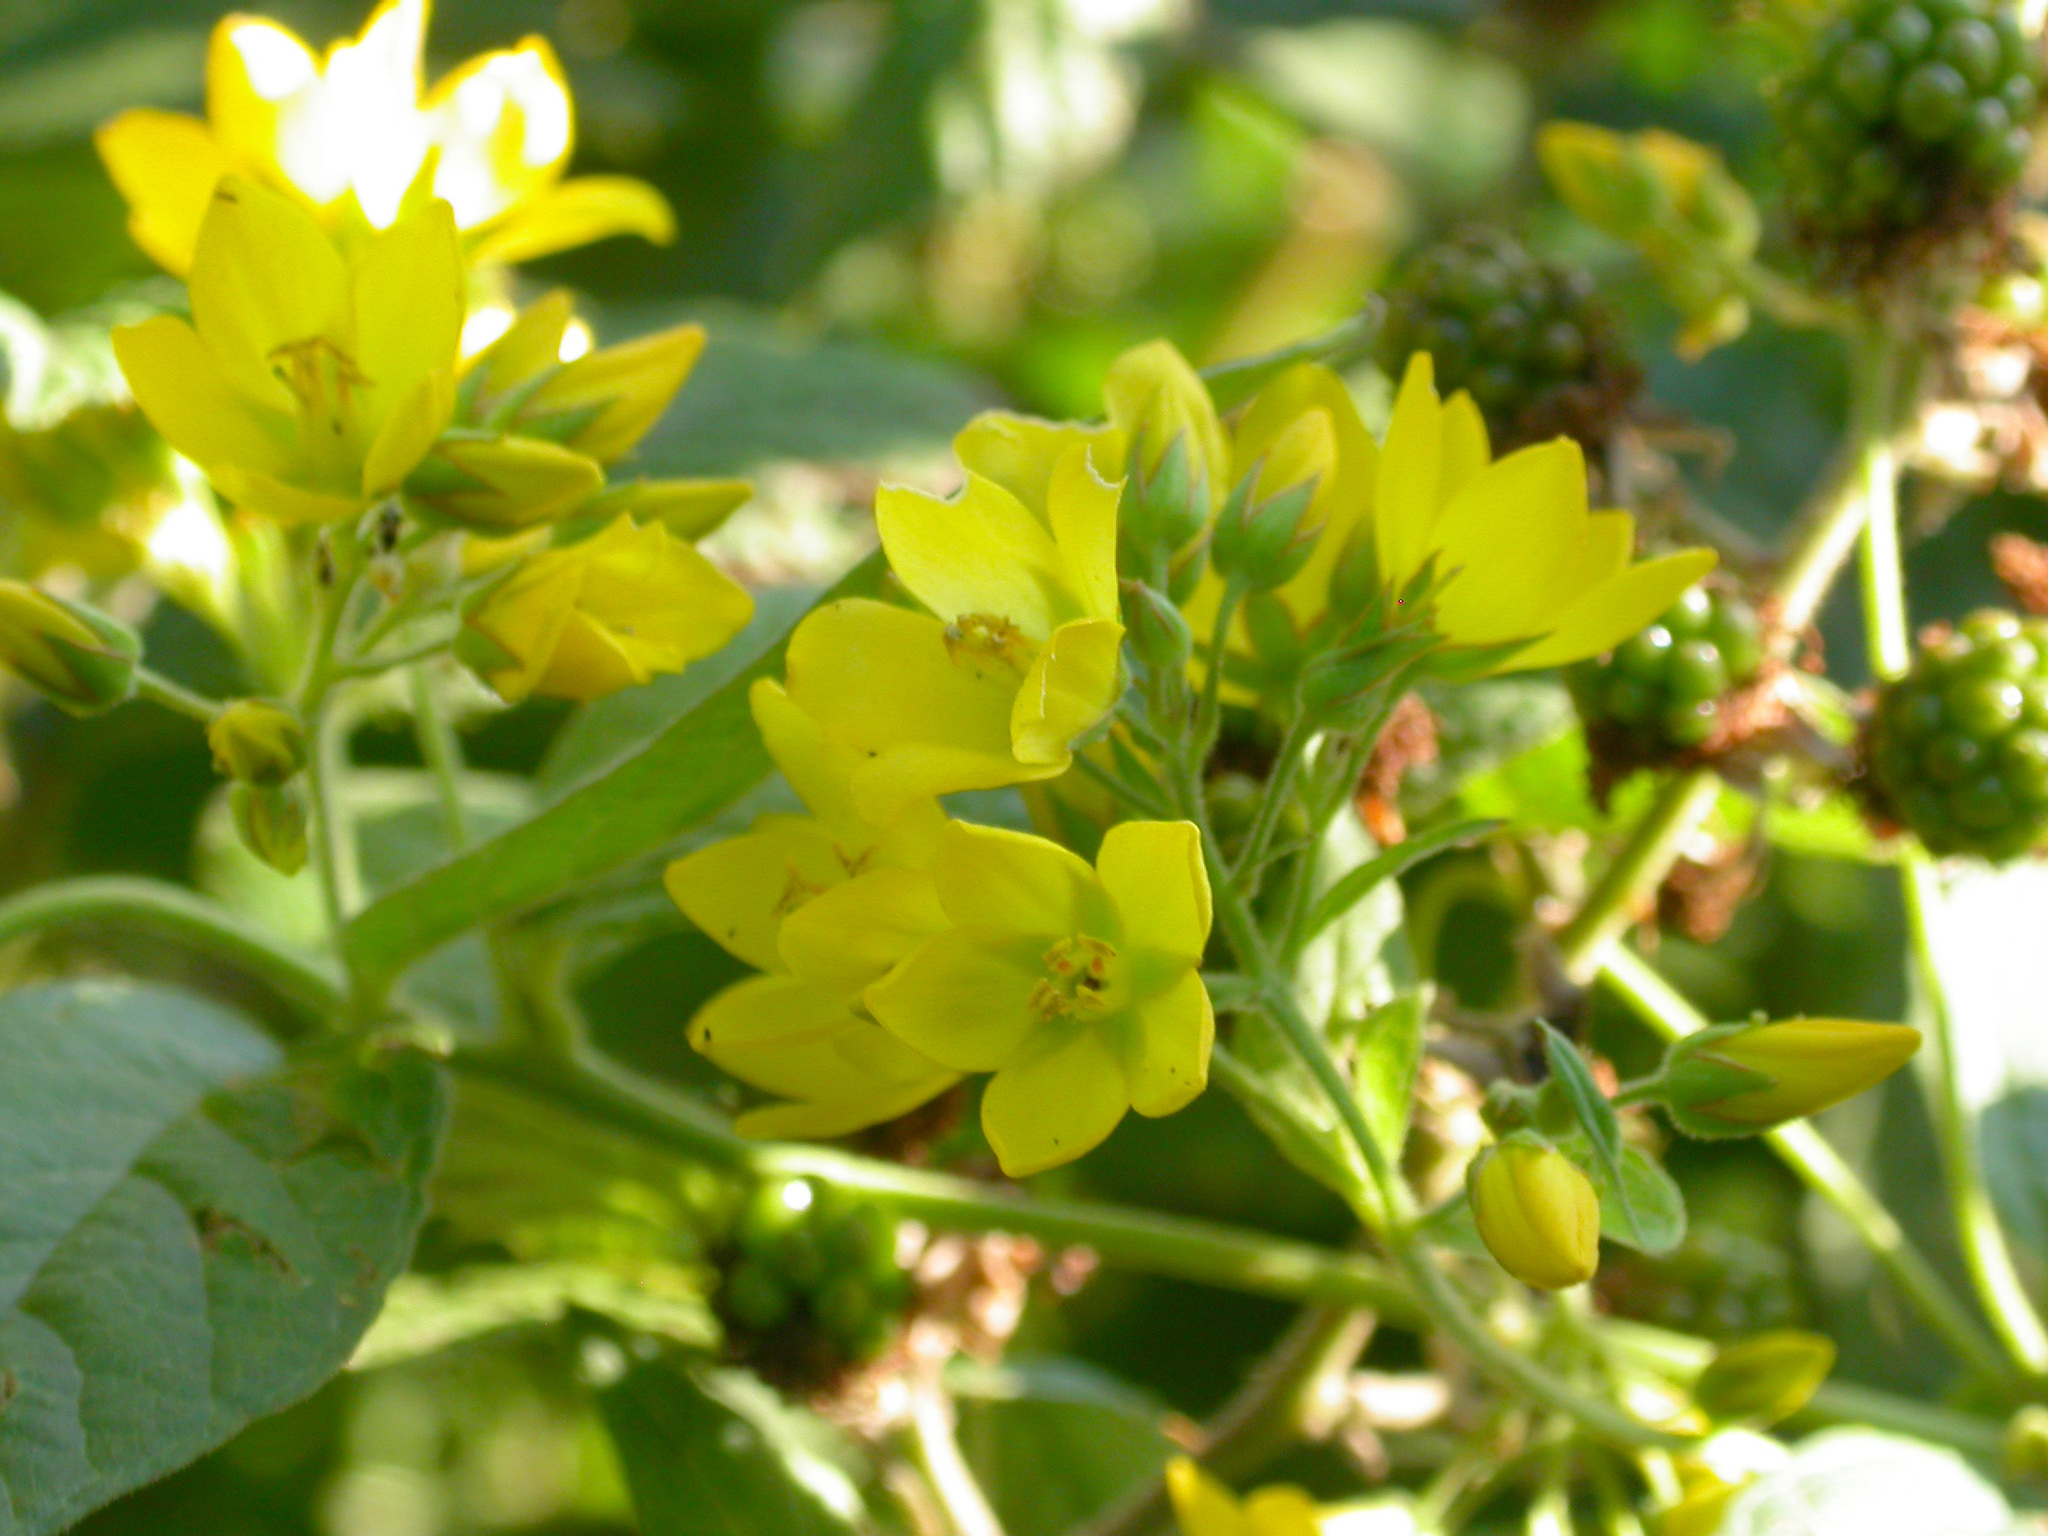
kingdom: Plantae
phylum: Tracheophyta
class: Magnoliopsida
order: Ericales
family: Primulaceae
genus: Lysimachia
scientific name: Lysimachia vulgaris
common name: Yellow loosestrife
